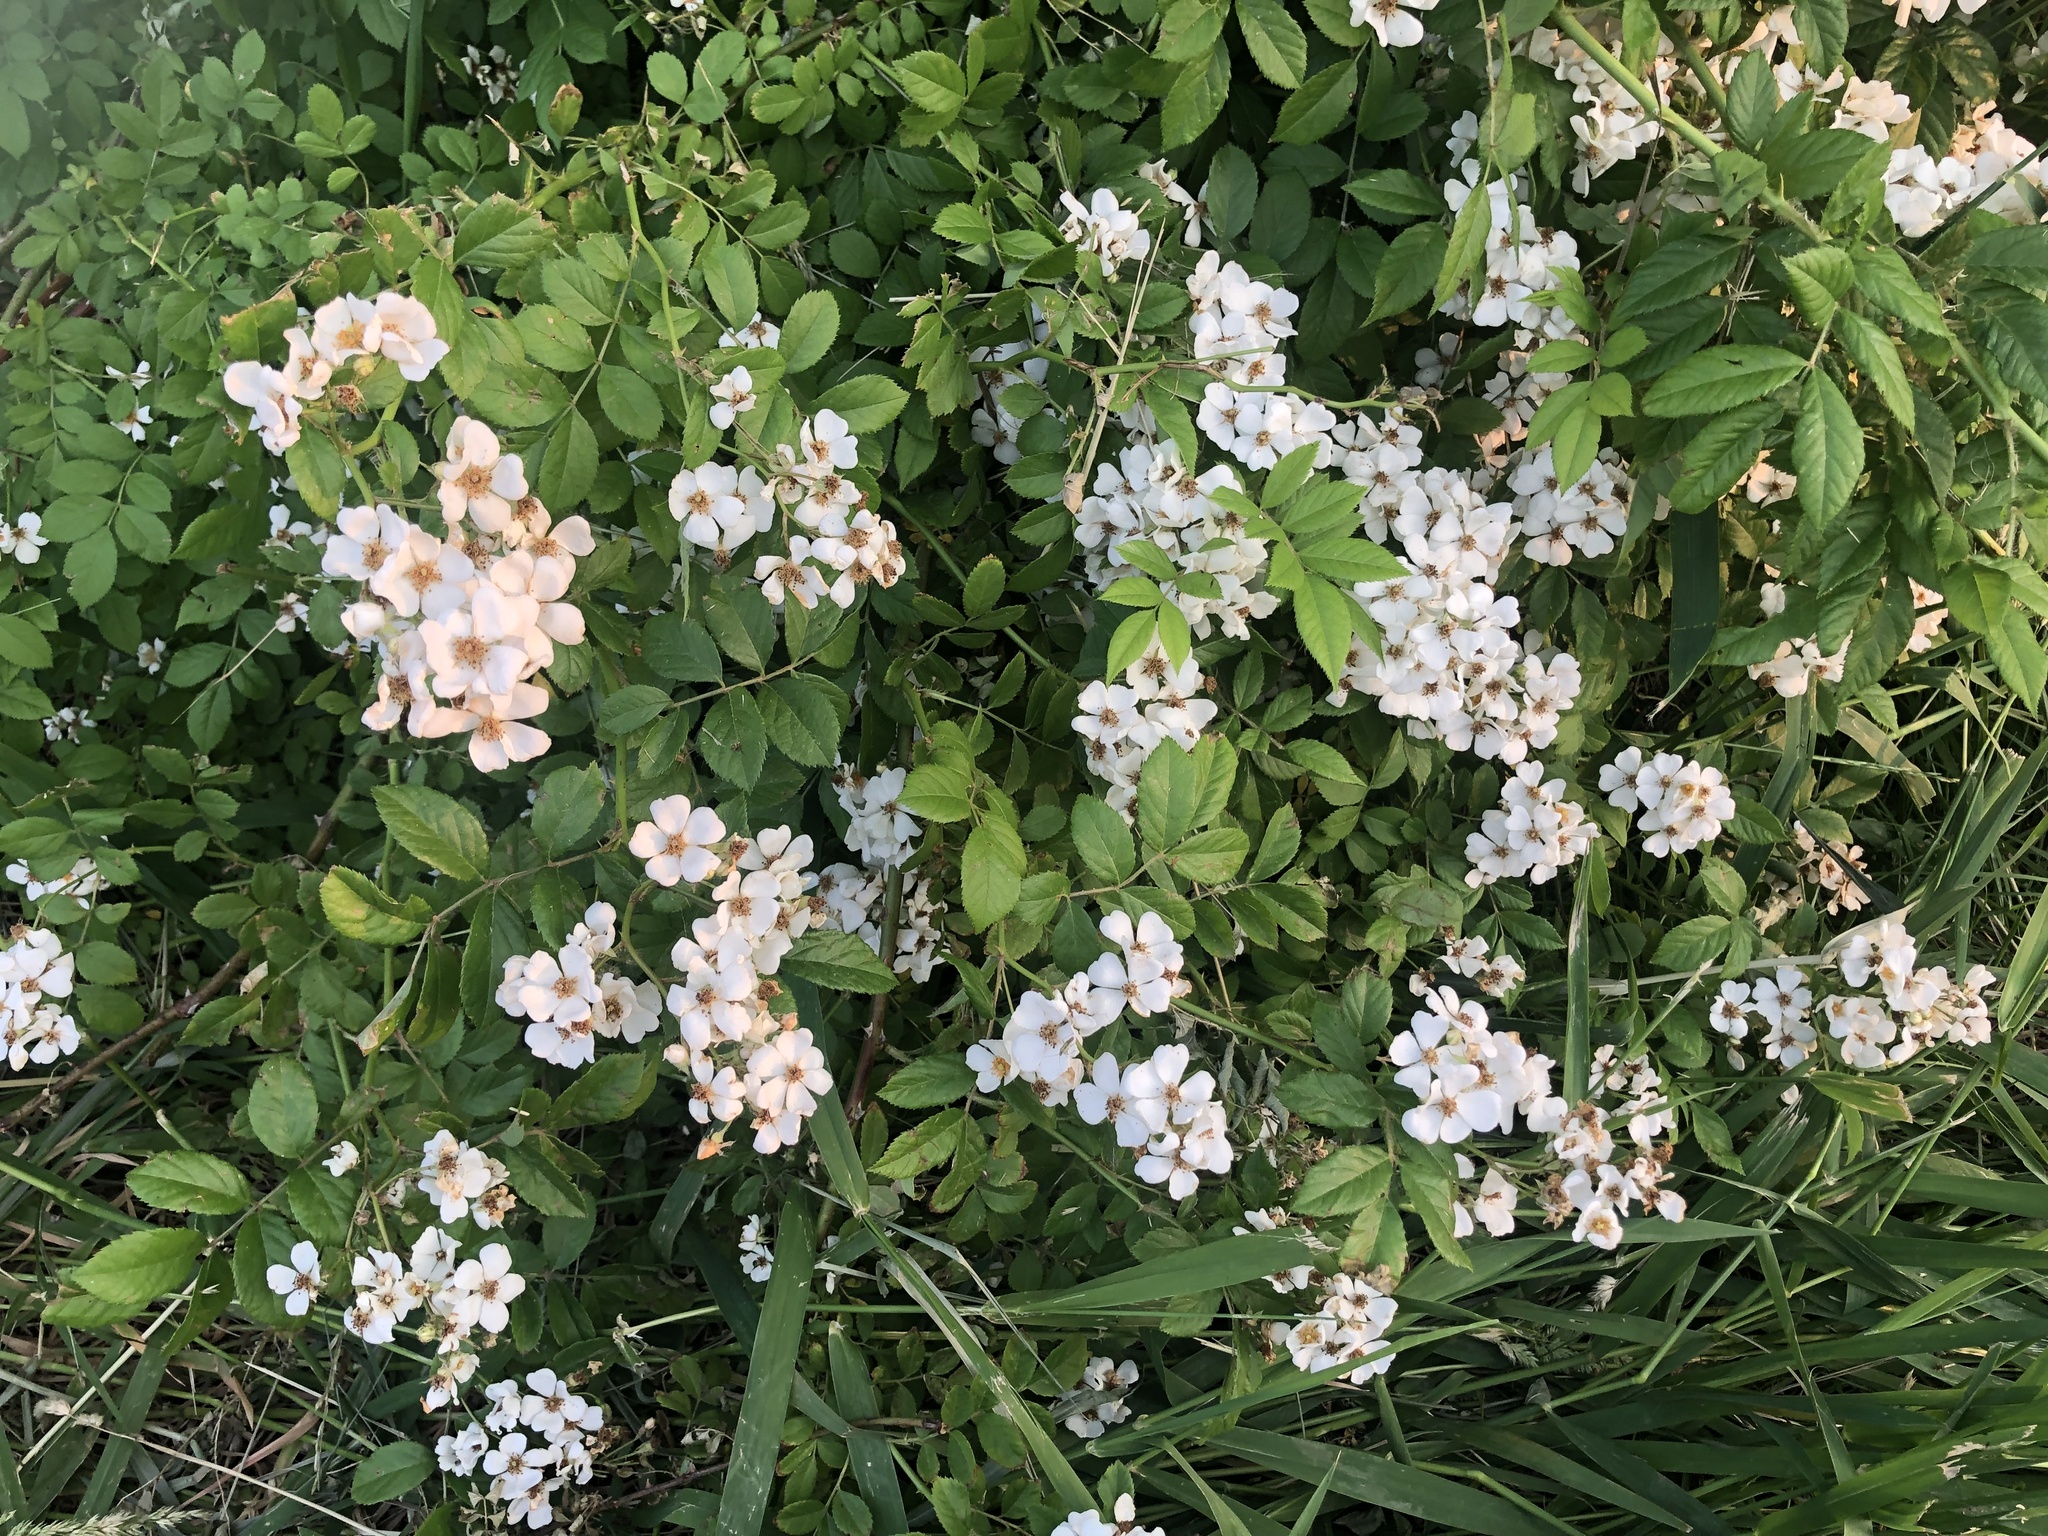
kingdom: Plantae
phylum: Tracheophyta
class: Magnoliopsida
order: Rosales
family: Rosaceae
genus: Rosa
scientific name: Rosa multiflora
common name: Multiflora rose
